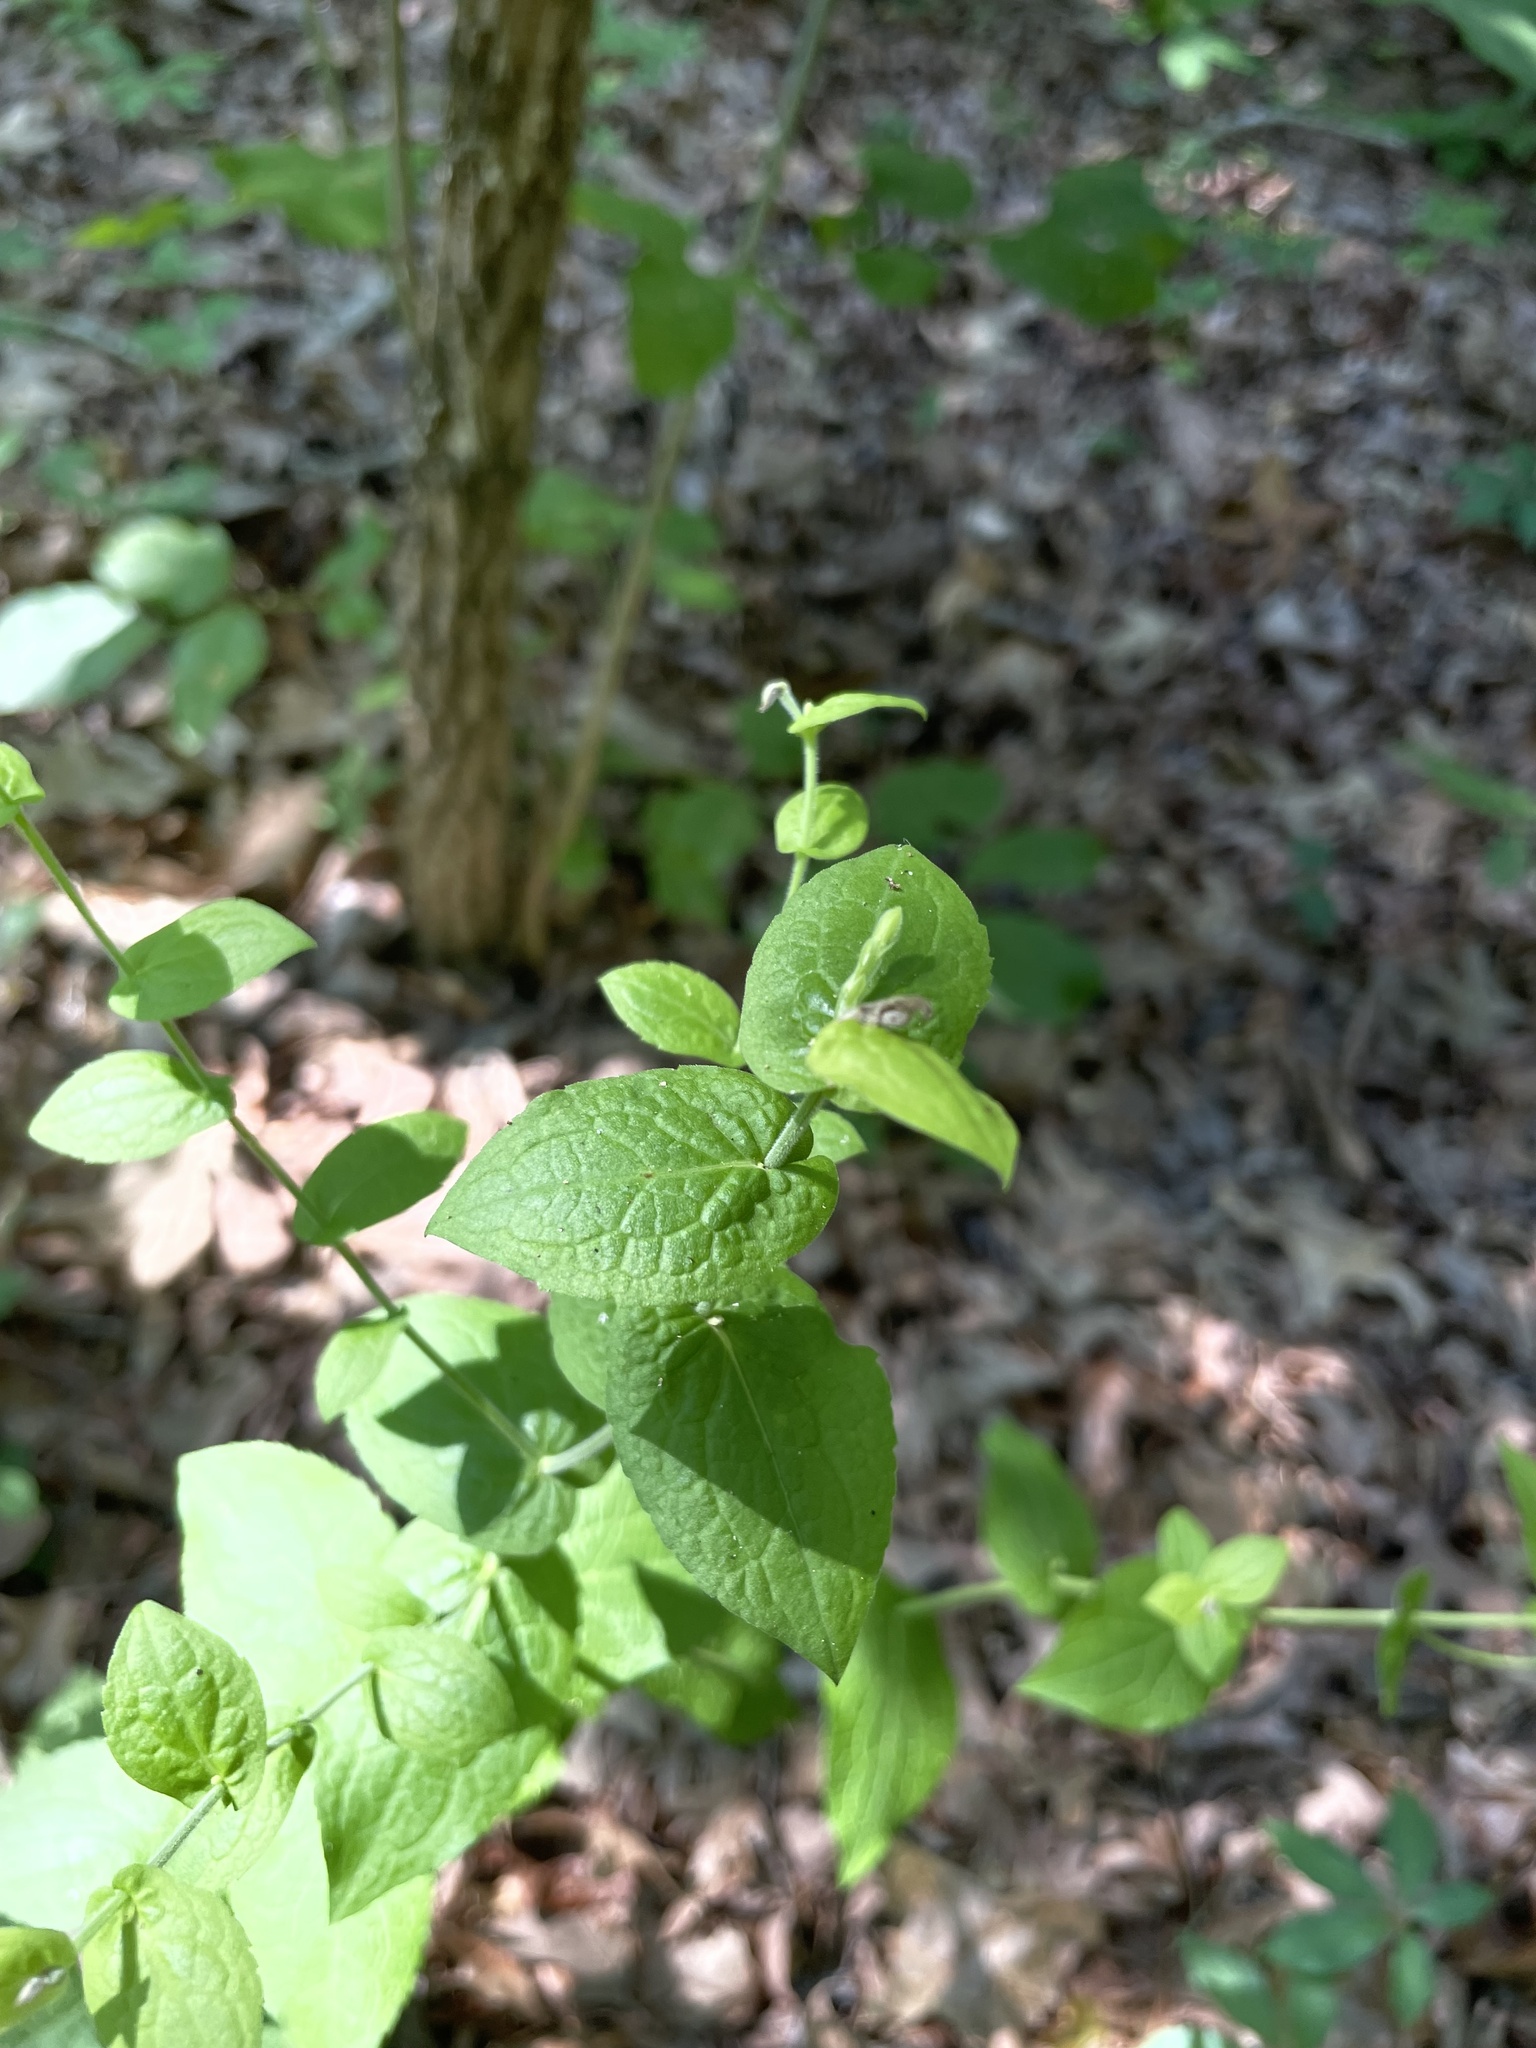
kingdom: Plantae
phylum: Tracheophyta
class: Magnoliopsida
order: Asterales
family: Asteraceae
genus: Solidago
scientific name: Solidago auriculata
